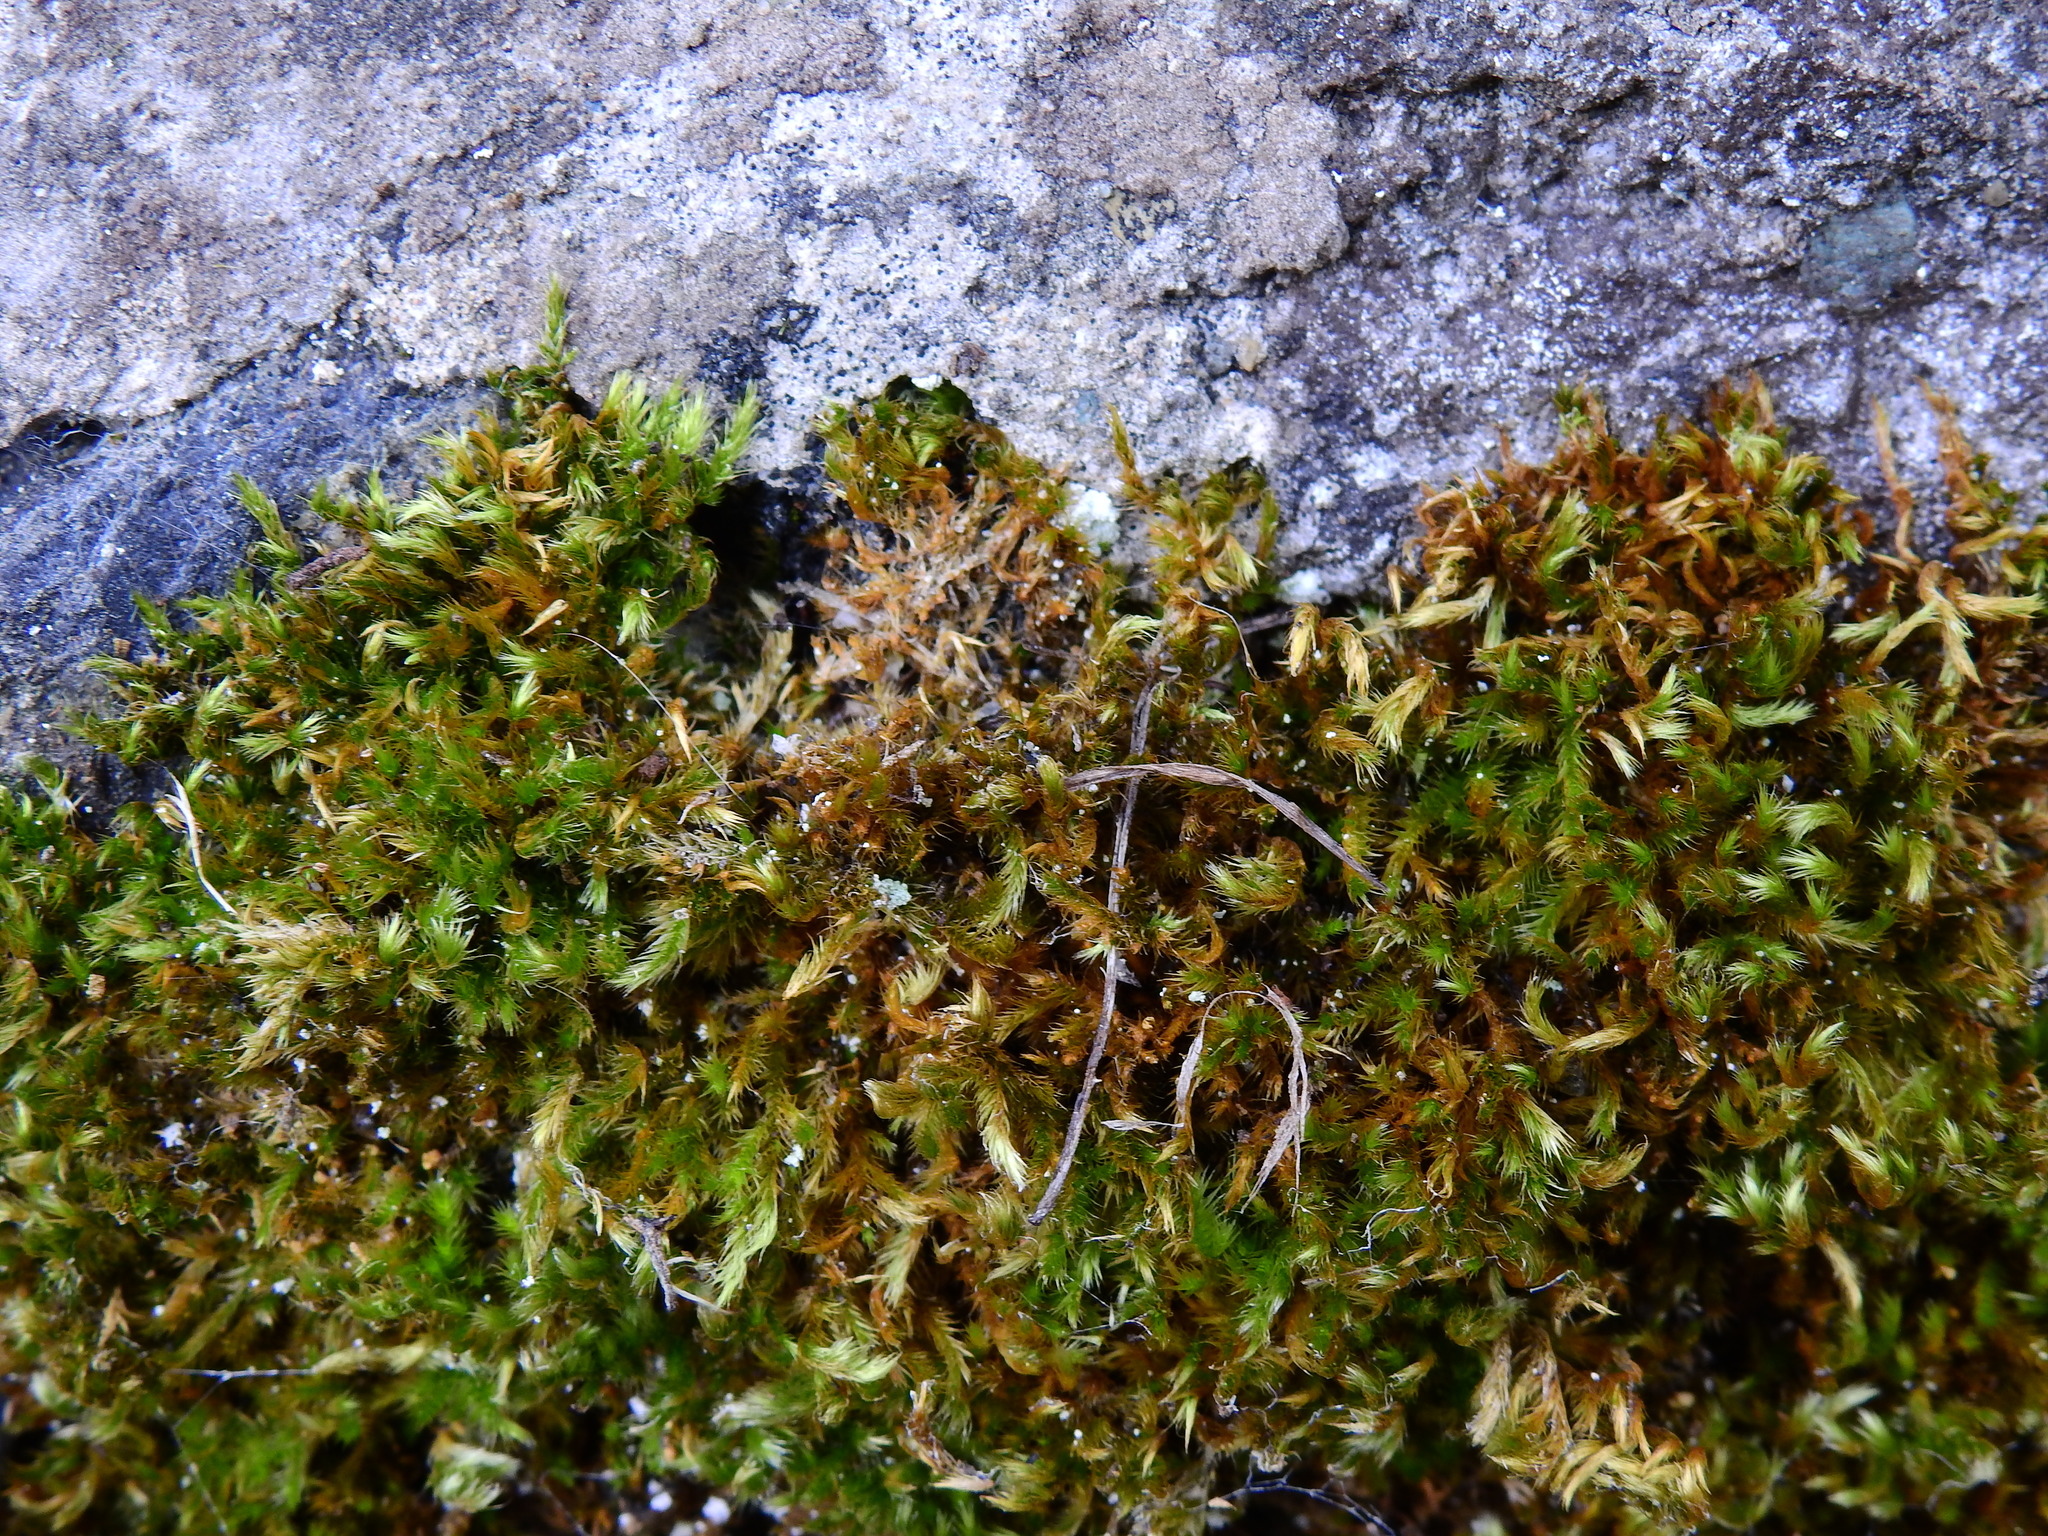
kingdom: Plantae
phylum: Bryophyta
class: Bryopsida
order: Hypnales
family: Brachytheciaceae
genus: Homalothecium
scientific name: Homalothecium sericeum
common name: Silky wall feather-moss
